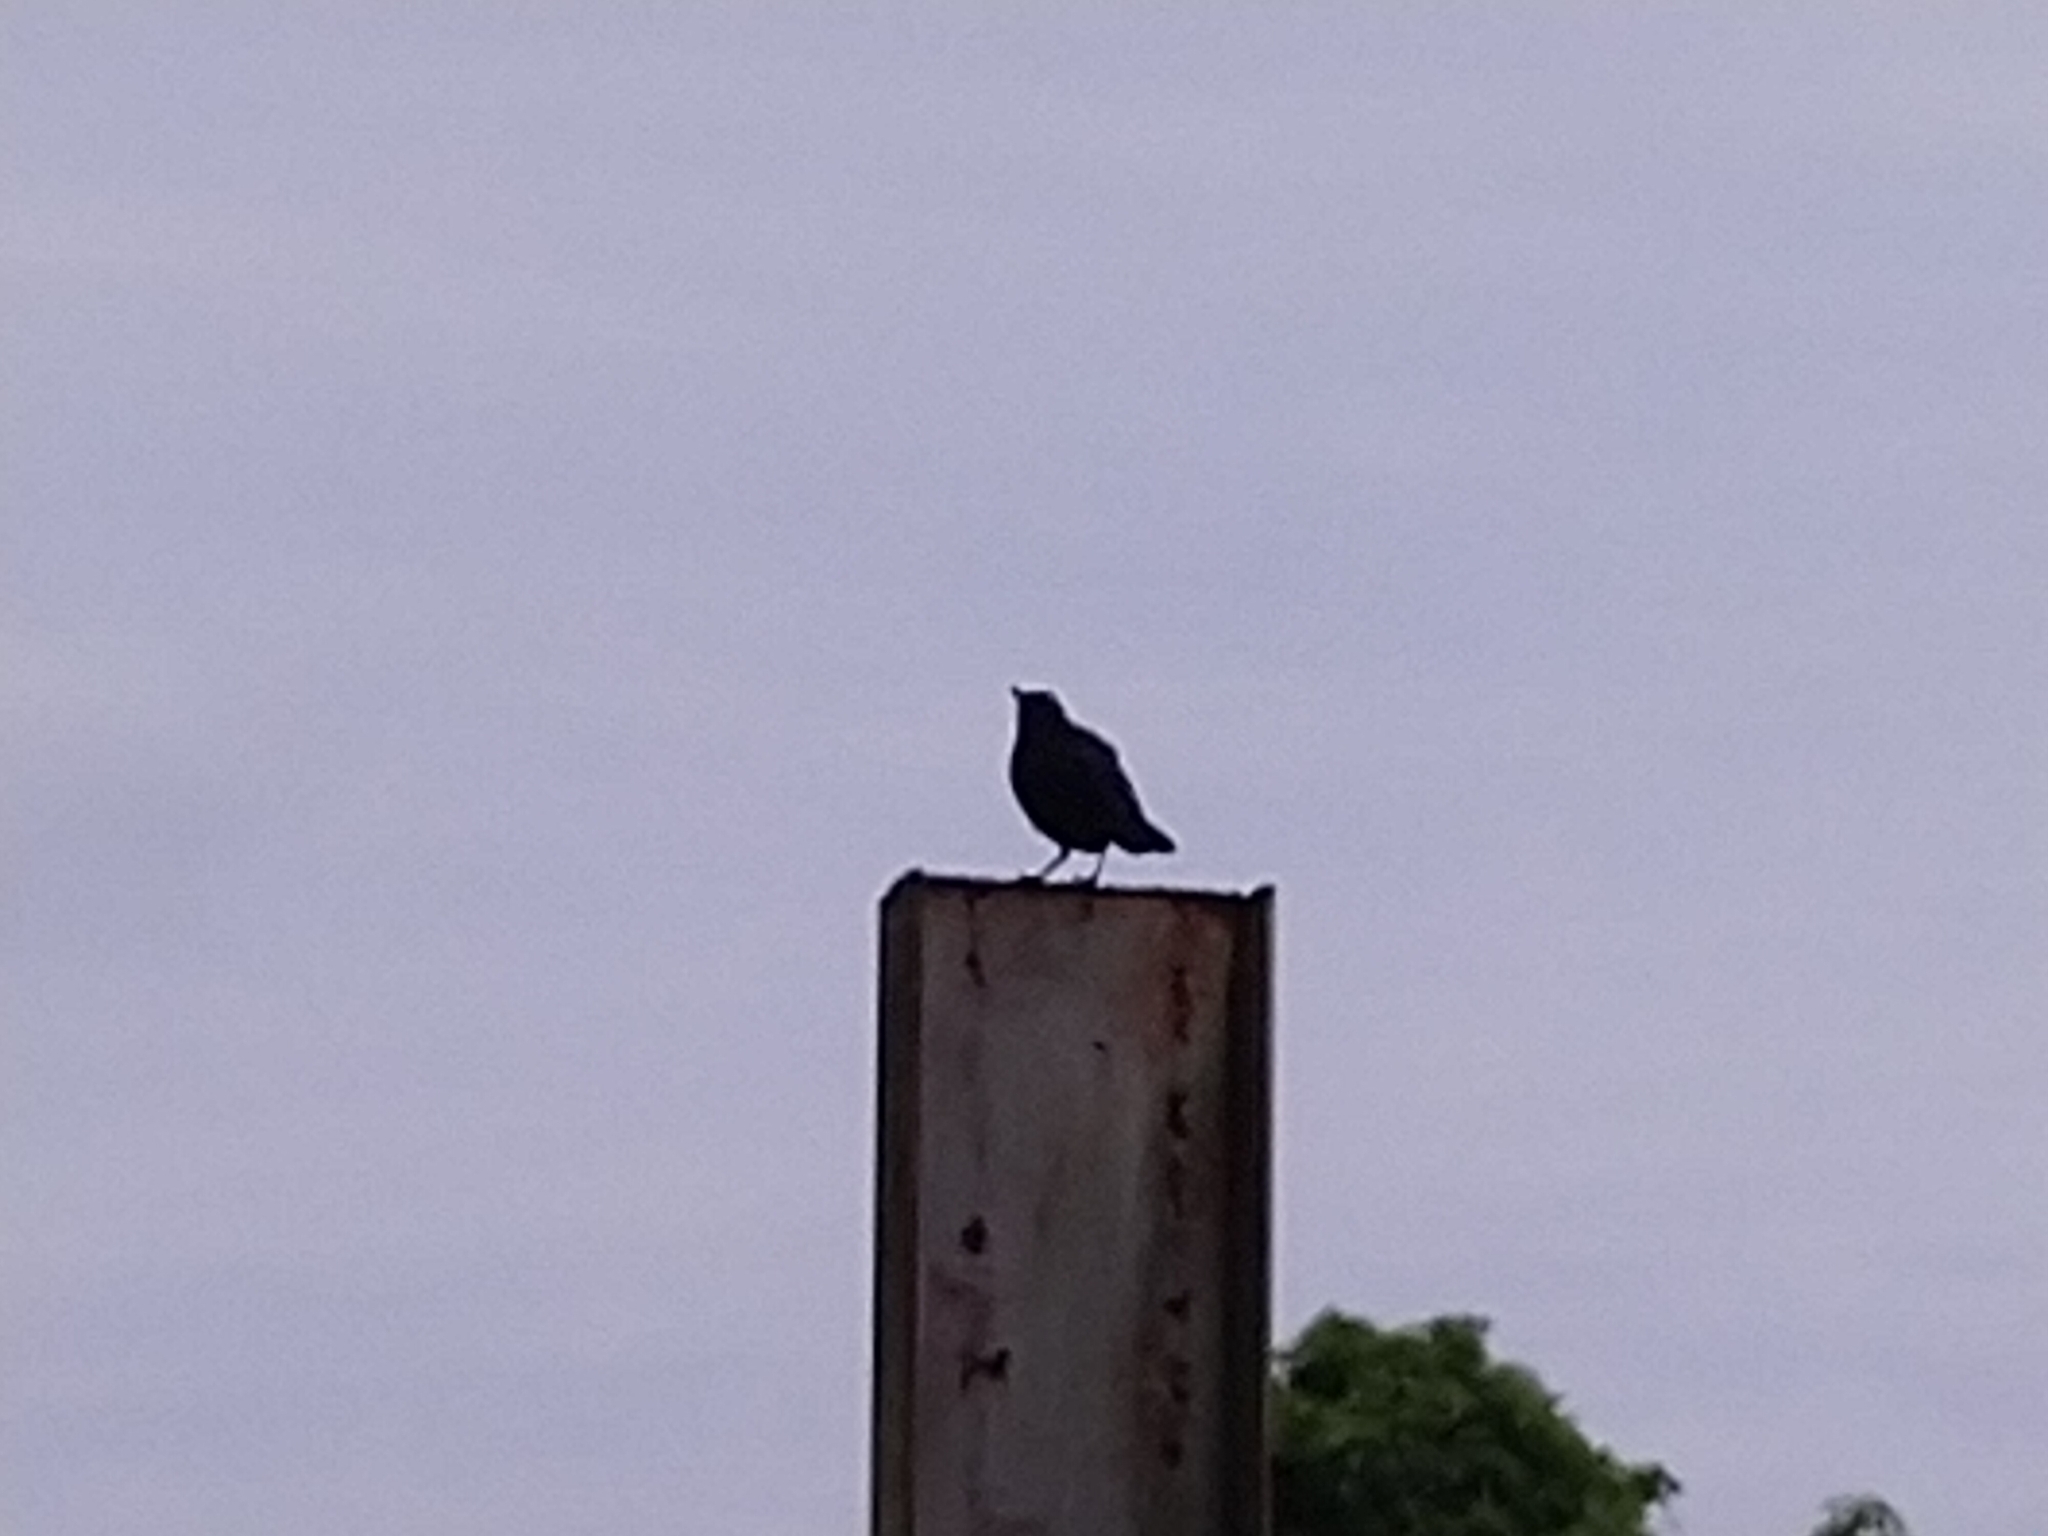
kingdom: Animalia
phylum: Chordata
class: Aves
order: Passeriformes
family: Muscicapidae
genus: Myophonus
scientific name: Myophonus insularis
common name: Taiwan whistling-thrush
